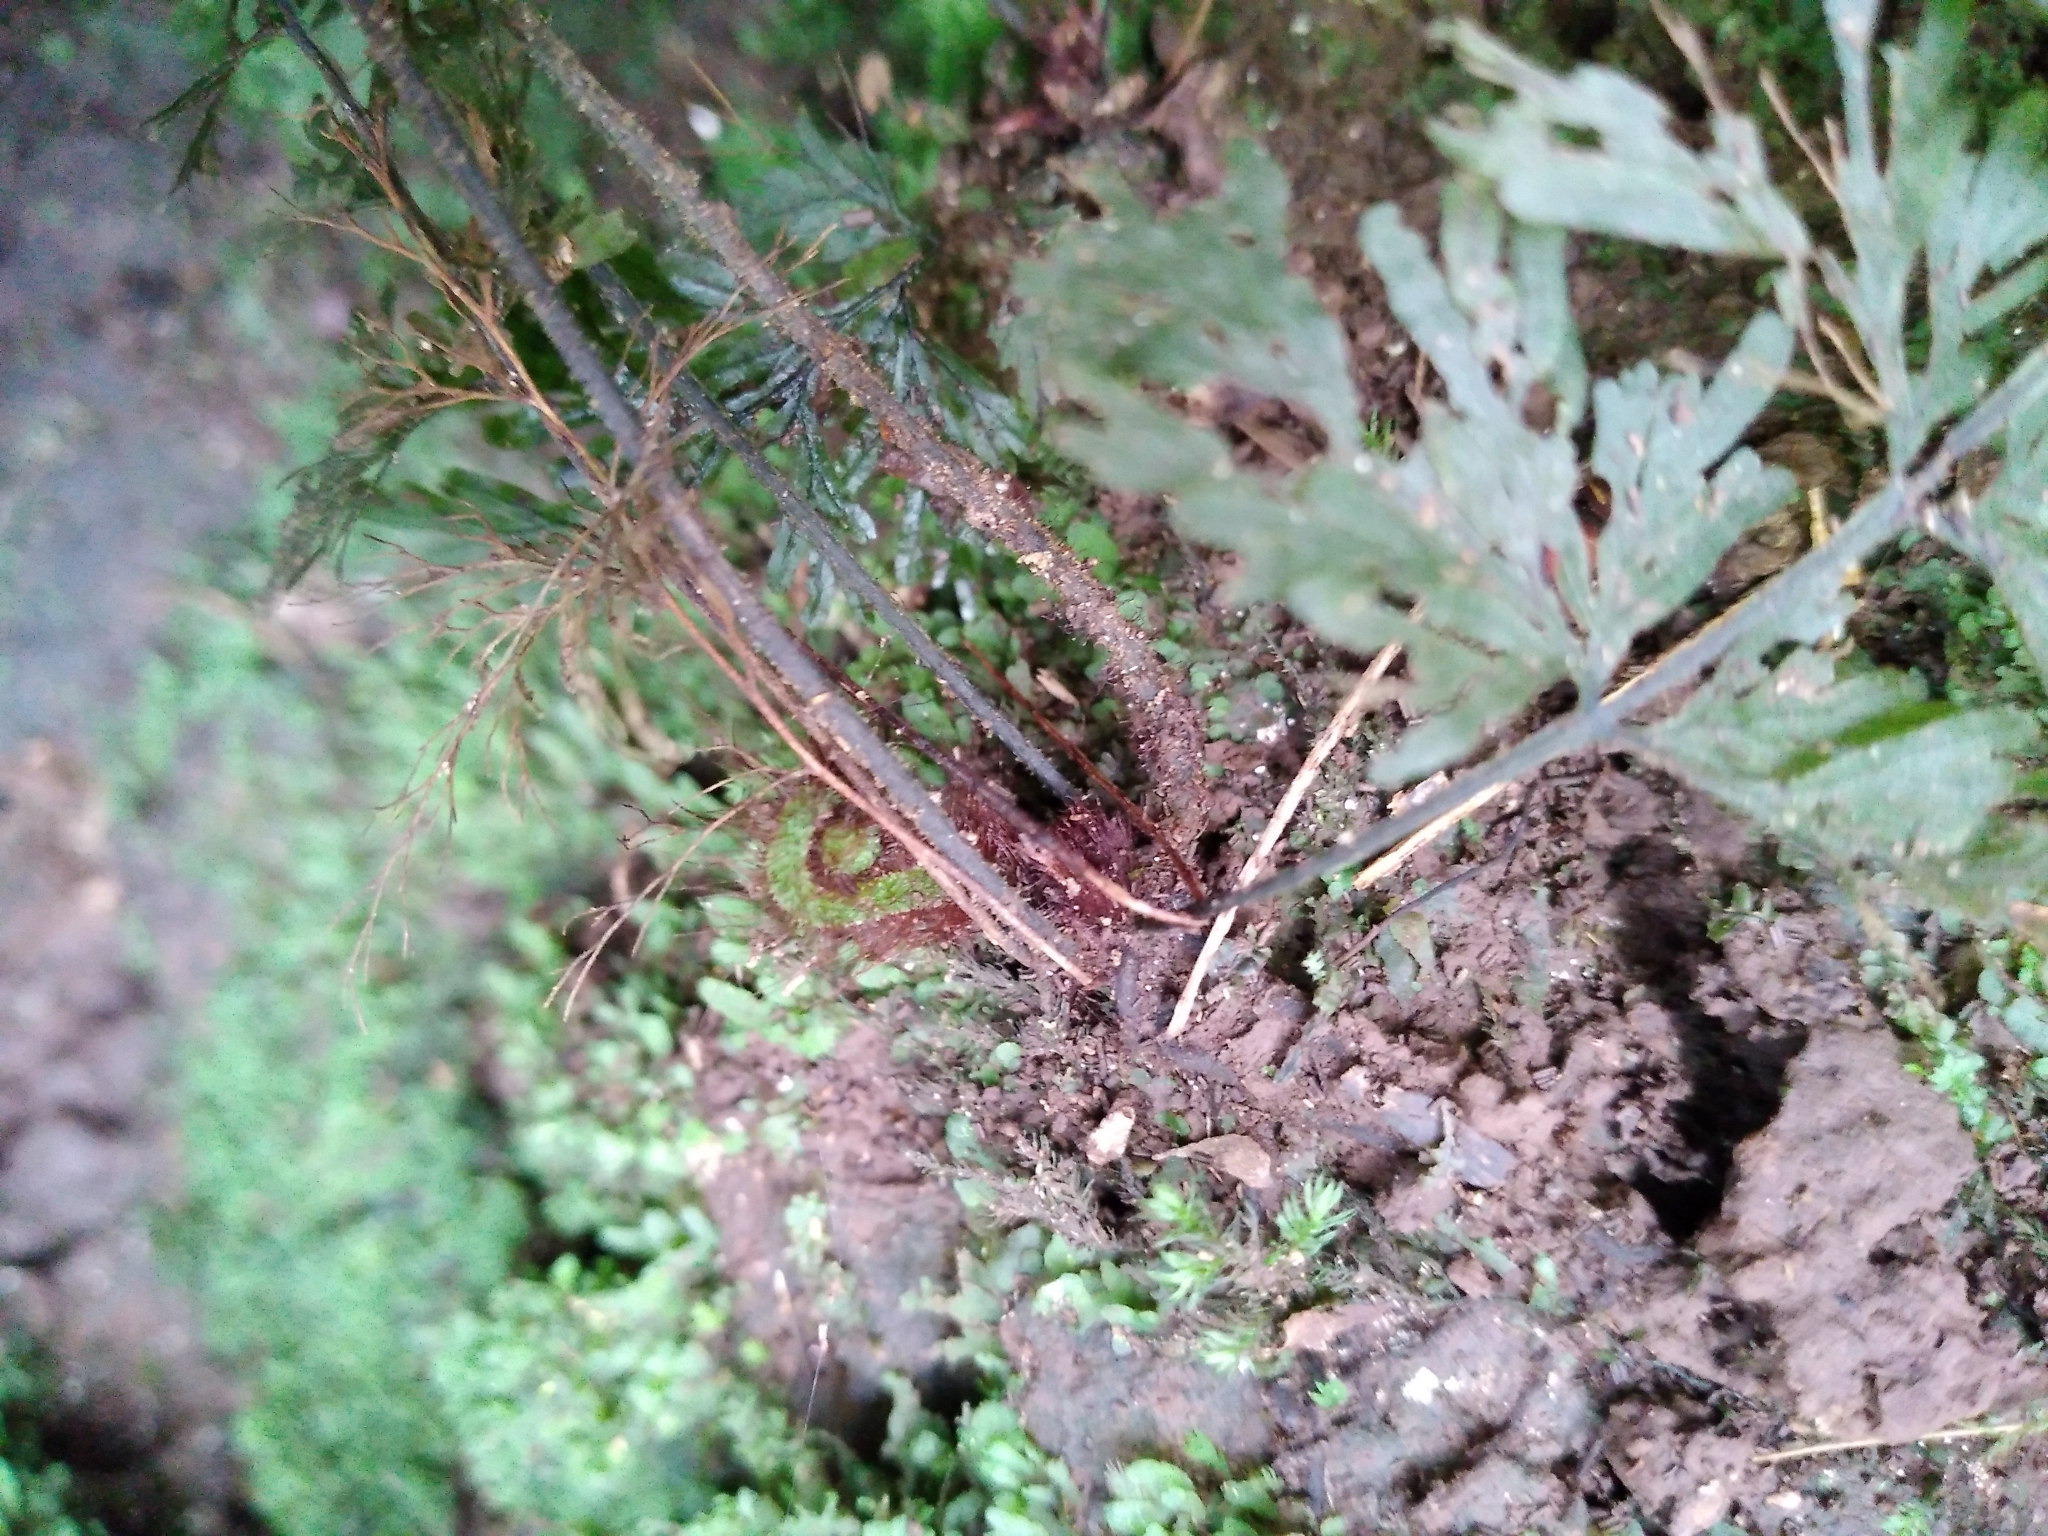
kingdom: Plantae
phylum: Tracheophyta
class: Polypodiopsida
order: Hymenophyllales
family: Hymenophyllaceae
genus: Callistopteris
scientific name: Callistopteris baueriana
